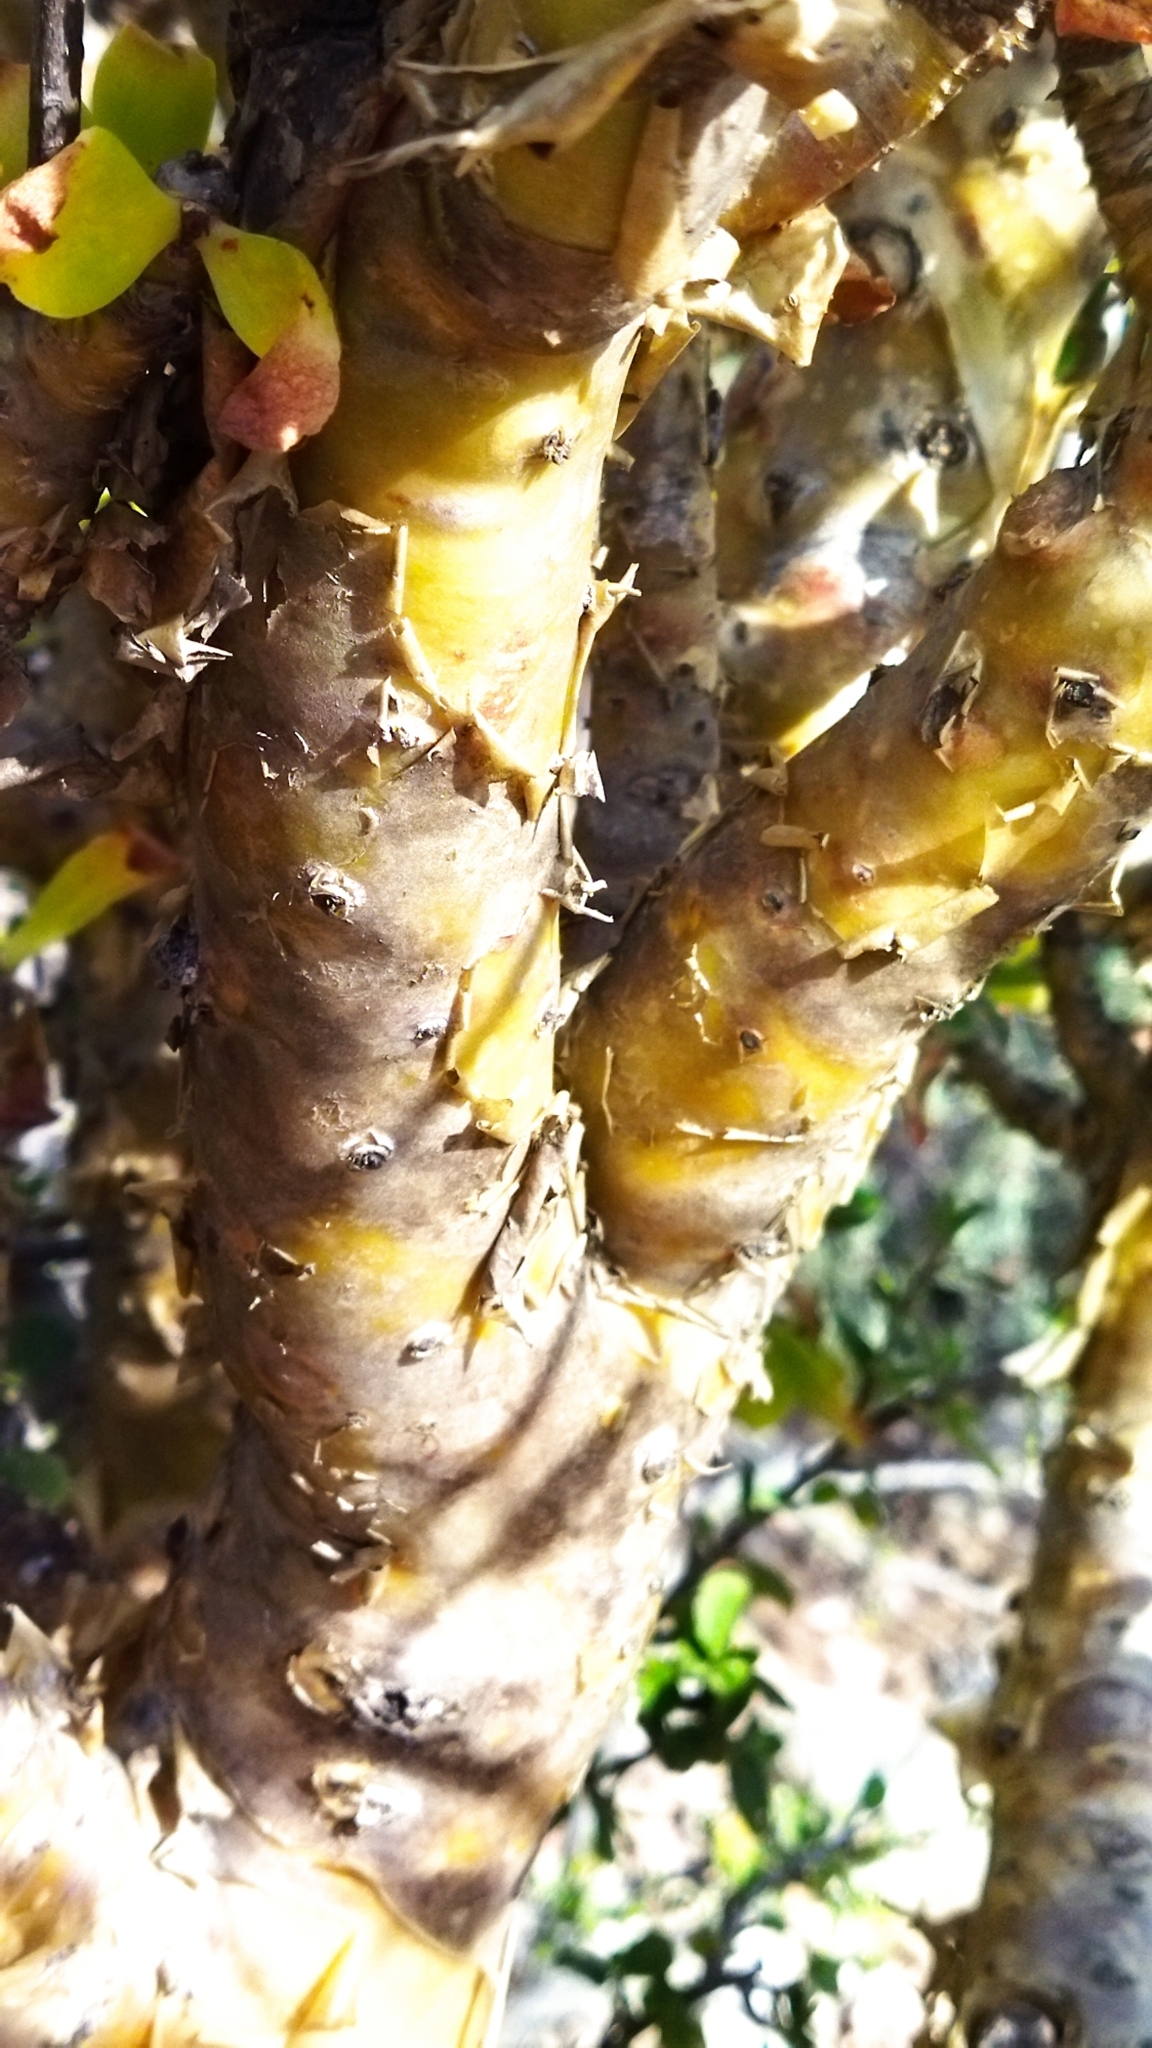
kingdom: Plantae
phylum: Tracheophyta
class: Magnoliopsida
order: Saxifragales
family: Crassulaceae
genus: Tylecodon
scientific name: Tylecodon paniculatus
